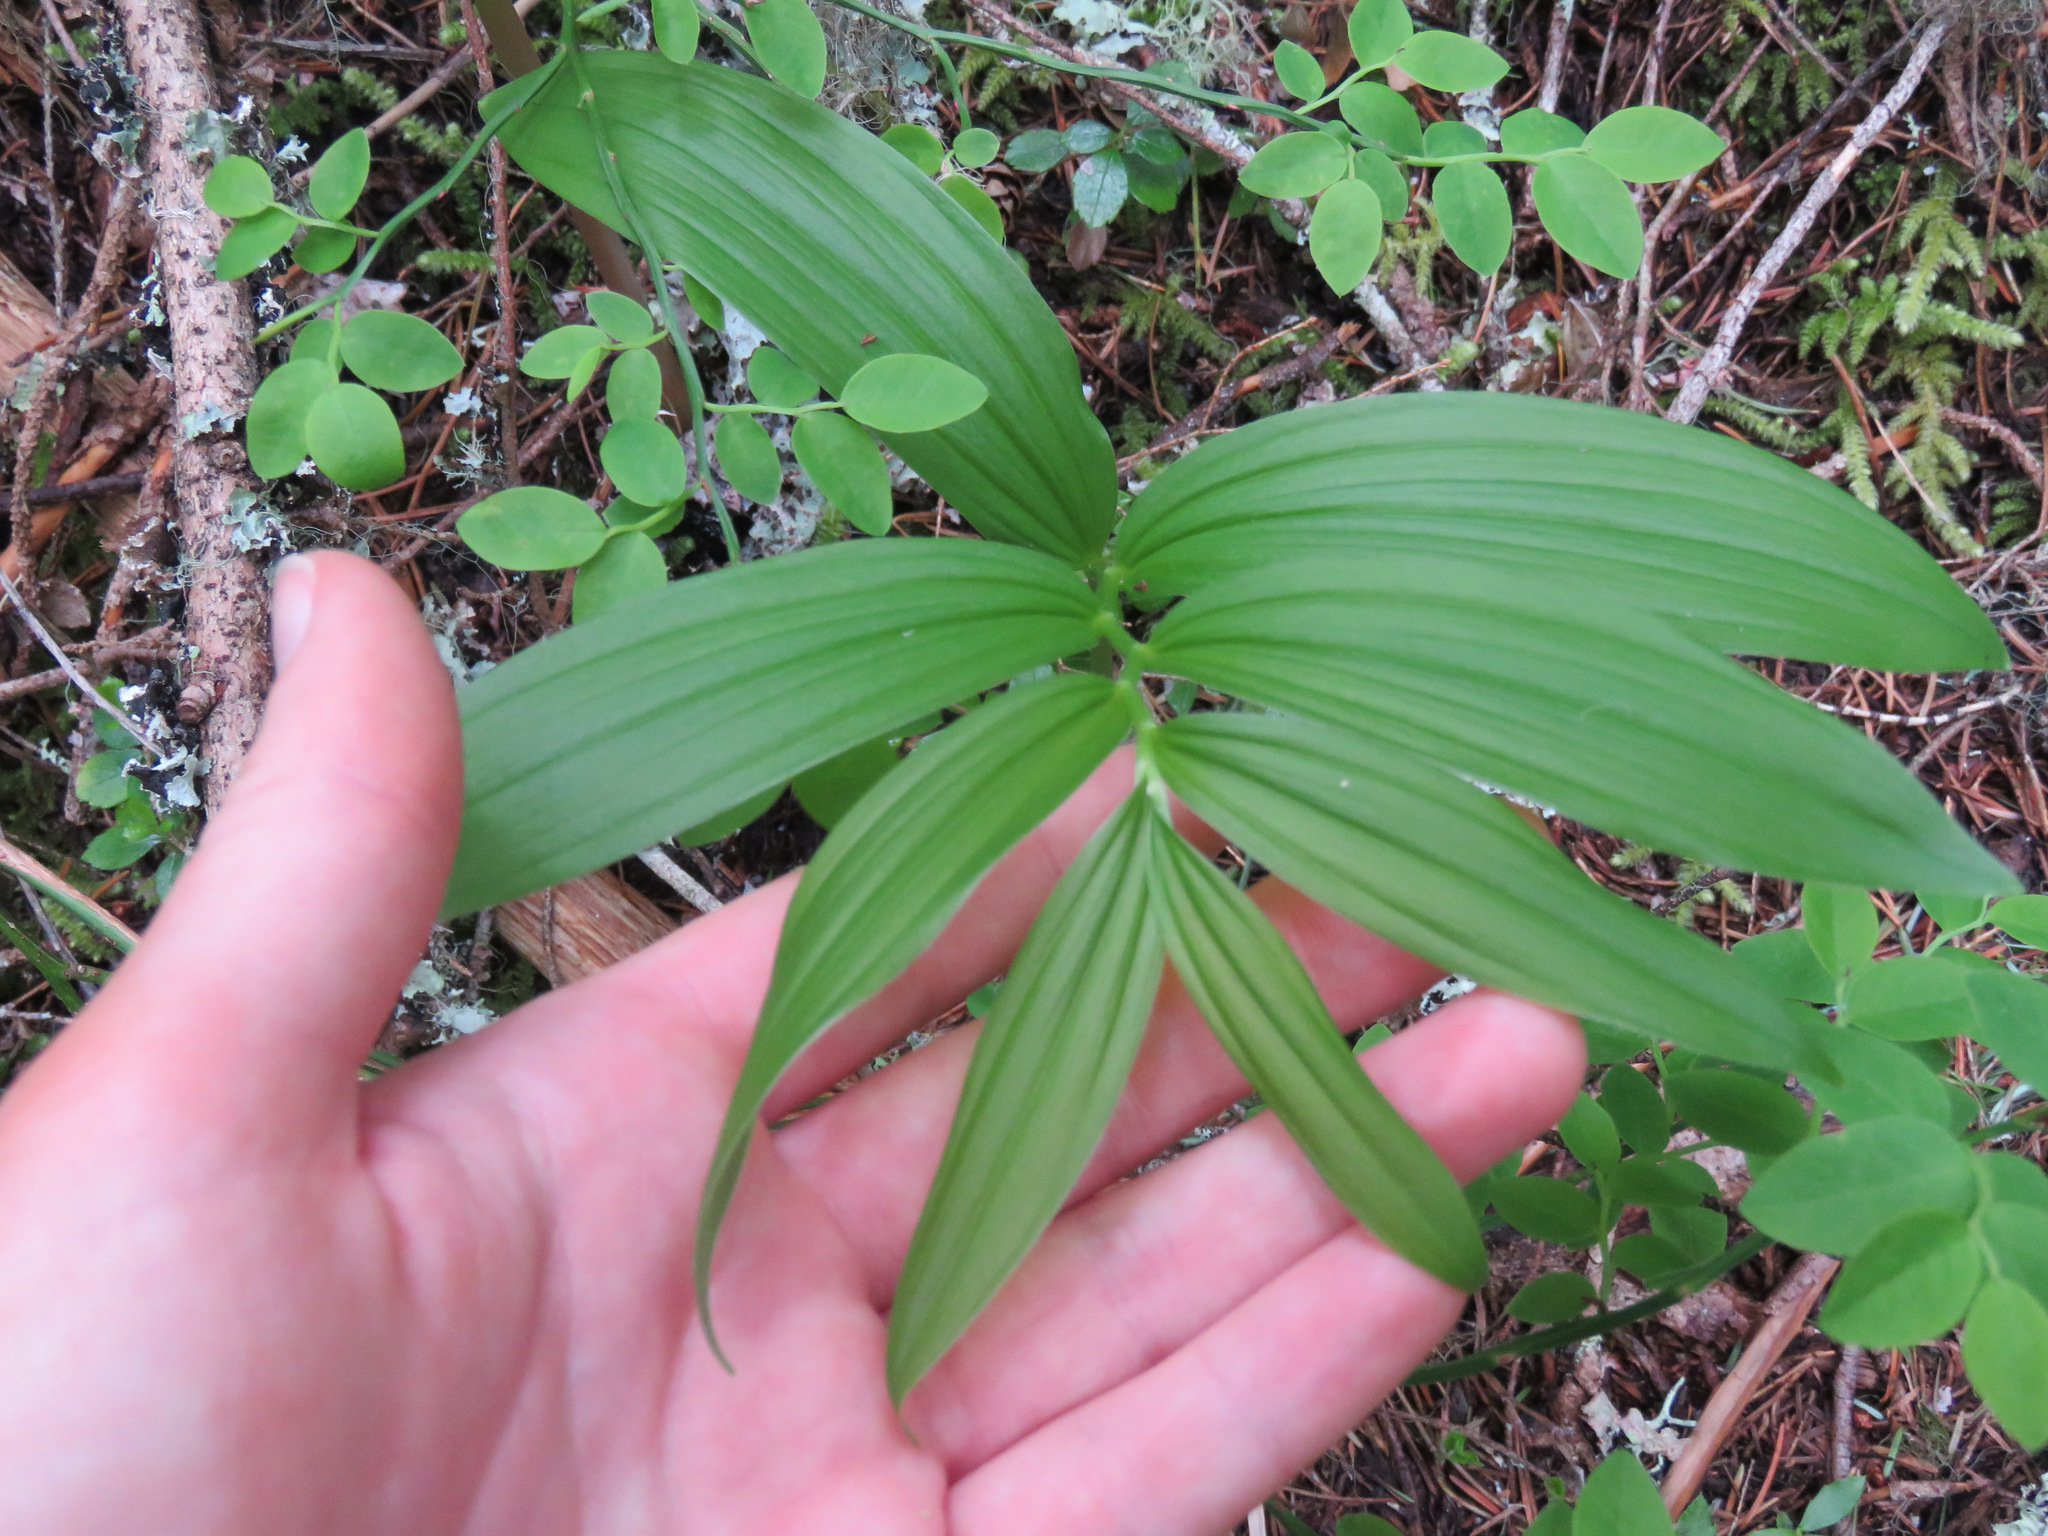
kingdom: Plantae
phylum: Tracheophyta
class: Liliopsida
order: Asparagales
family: Asparagaceae
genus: Maianthemum
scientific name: Maianthemum racemosum
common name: False spikenard
